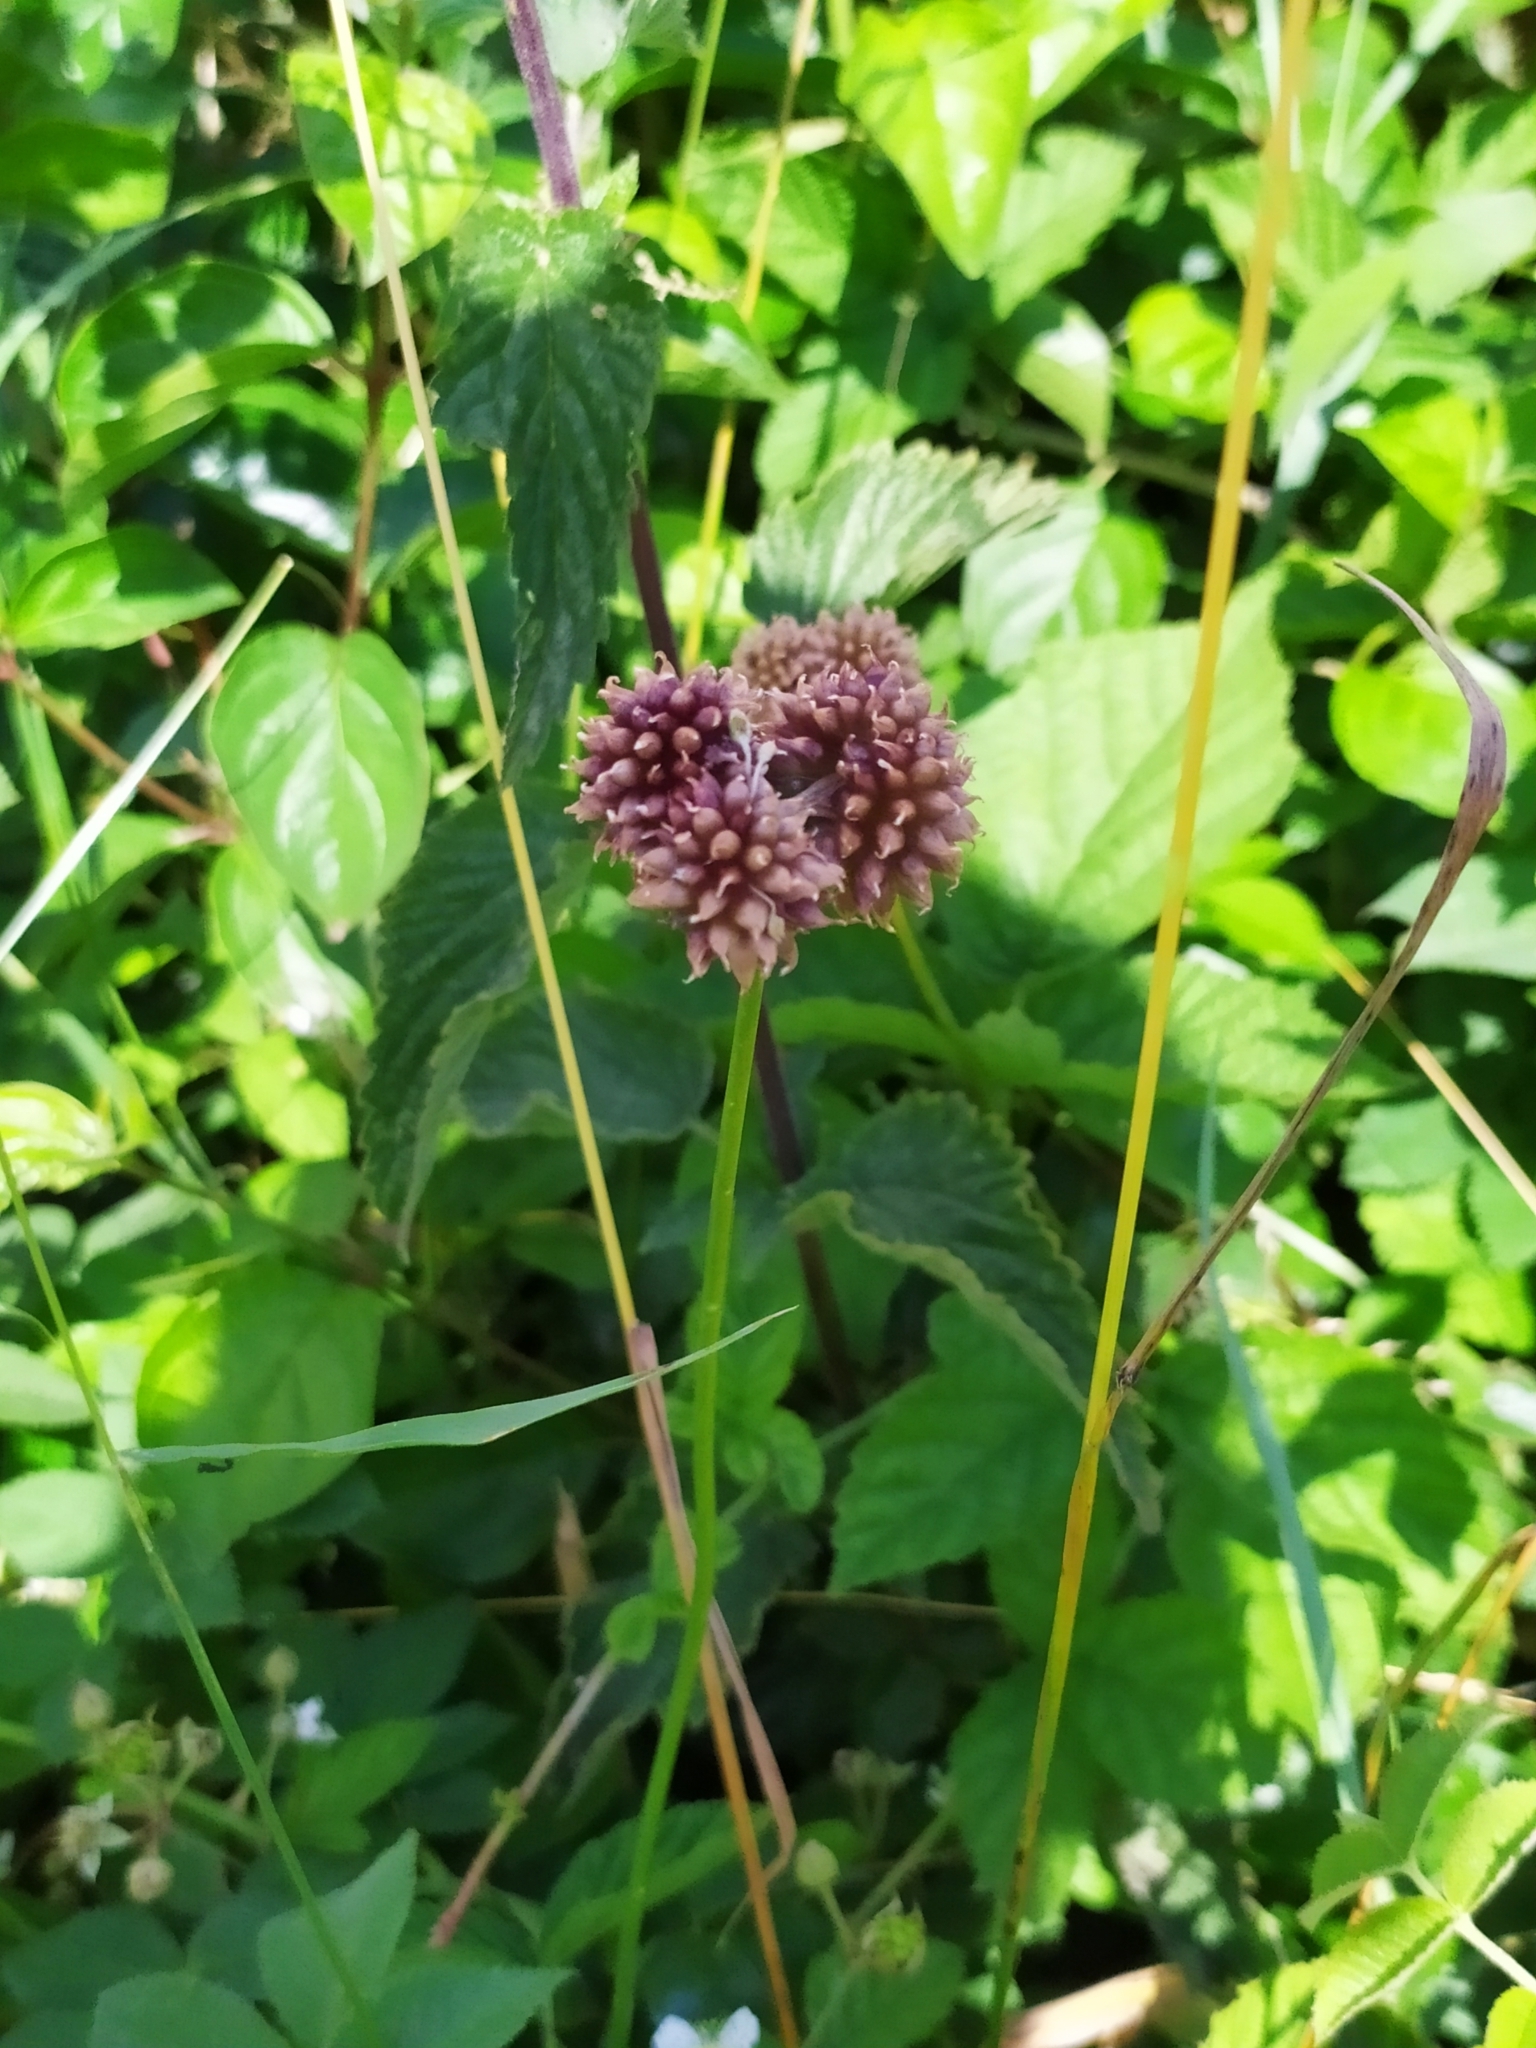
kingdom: Plantae
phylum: Tracheophyta
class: Liliopsida
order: Asparagales
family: Amaryllidaceae
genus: Allium
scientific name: Allium vineale
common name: Crow garlic
